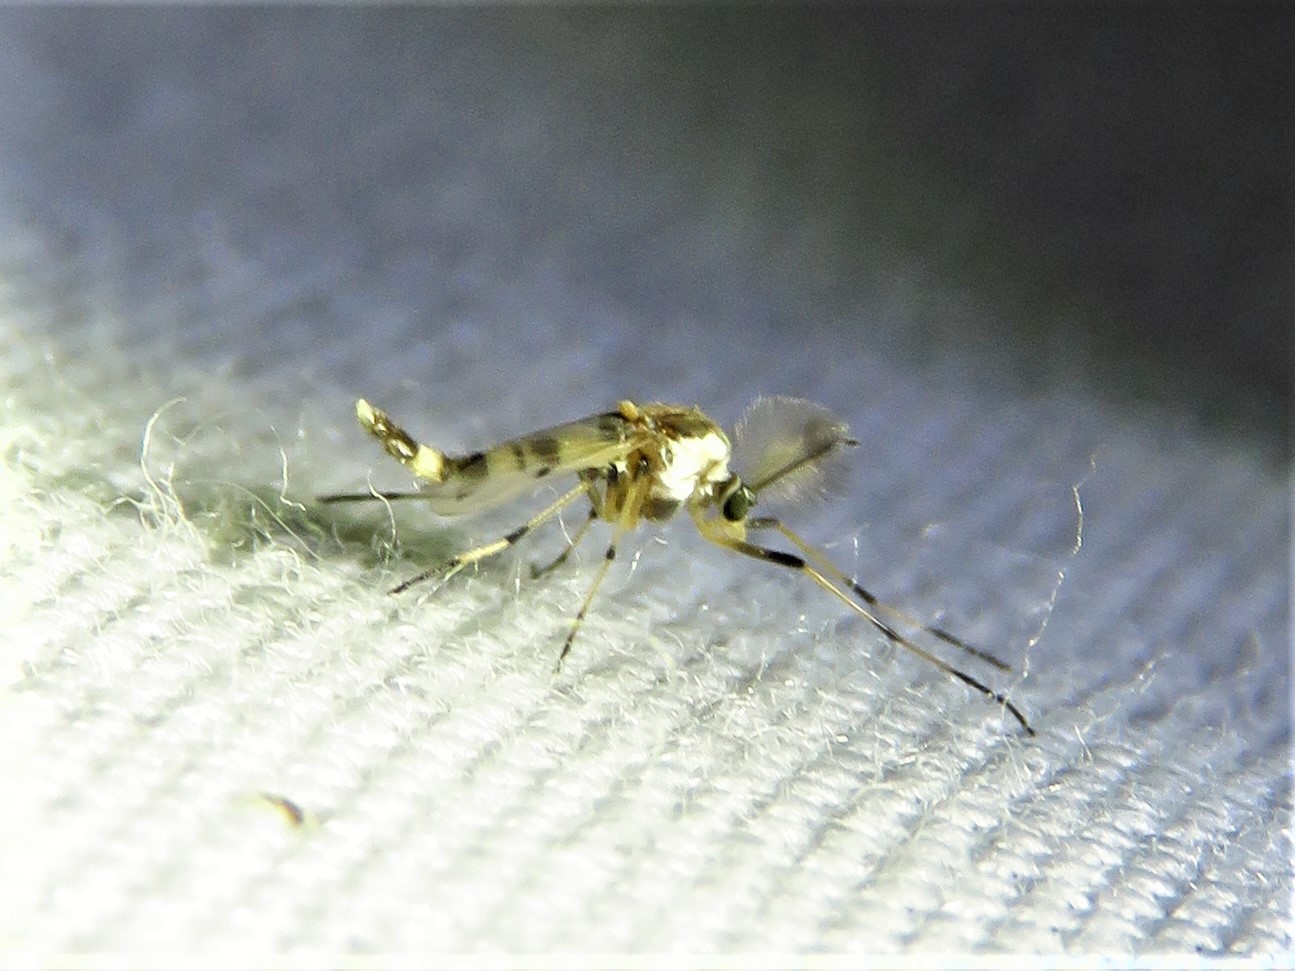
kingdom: Animalia
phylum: Arthropoda
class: Insecta
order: Diptera
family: Chironomidae
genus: Coelotanypus
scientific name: Coelotanypus atus
